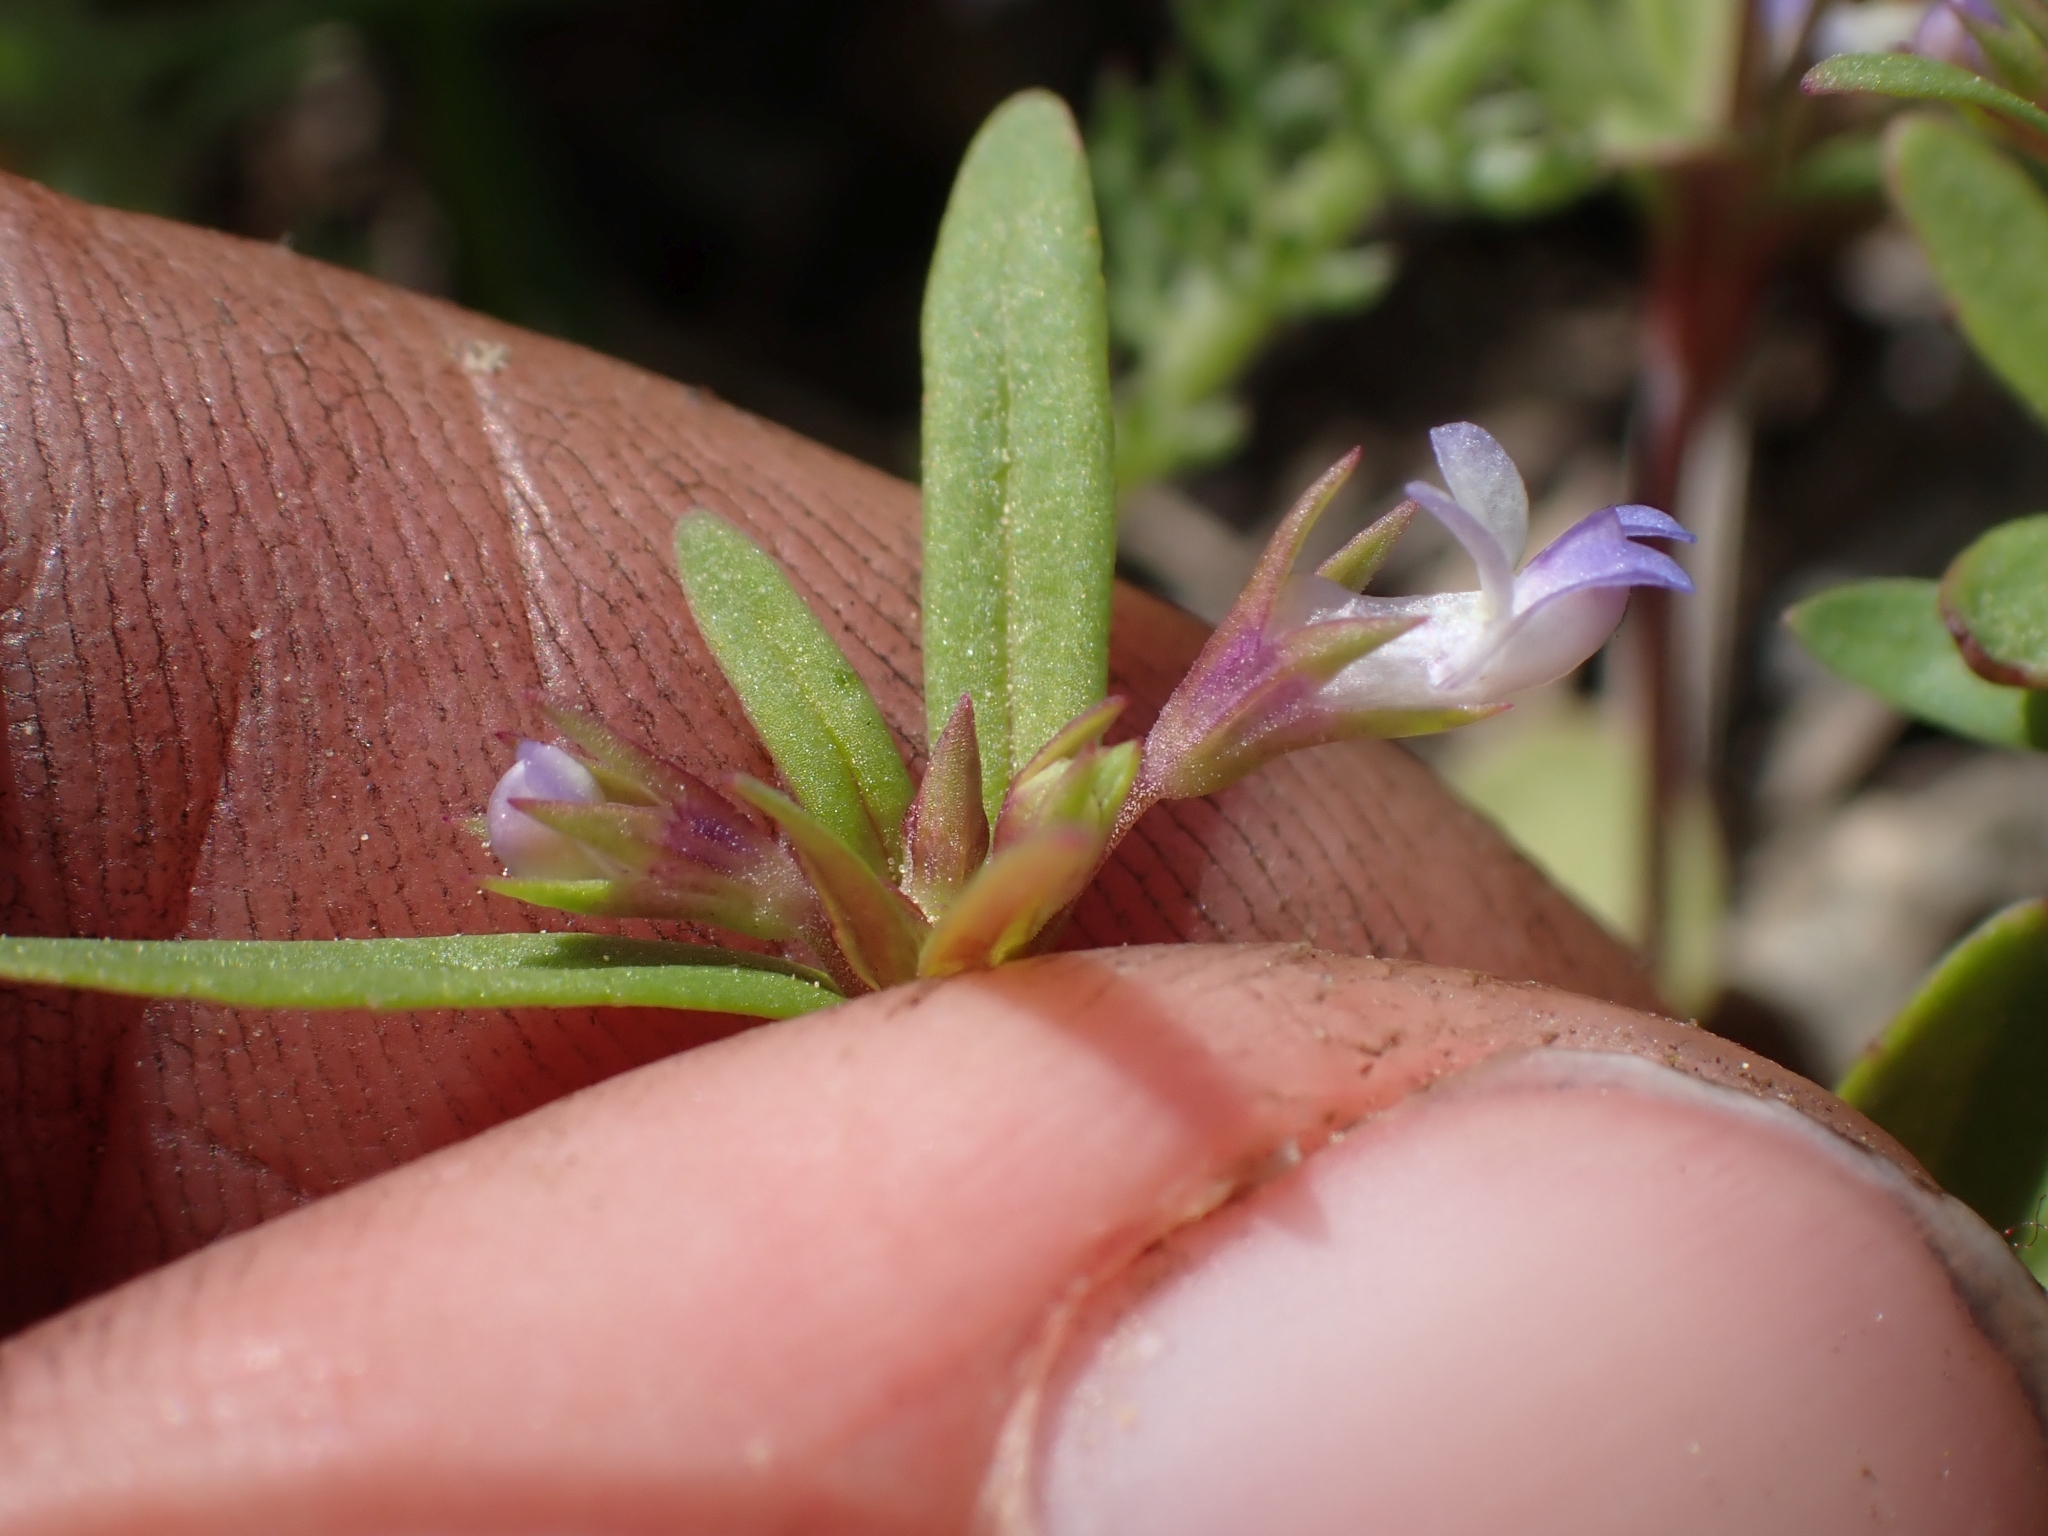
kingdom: Plantae
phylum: Tracheophyta
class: Magnoliopsida
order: Lamiales
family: Plantaginaceae
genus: Collinsia
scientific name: Collinsia parviflora
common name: Blue-lips
